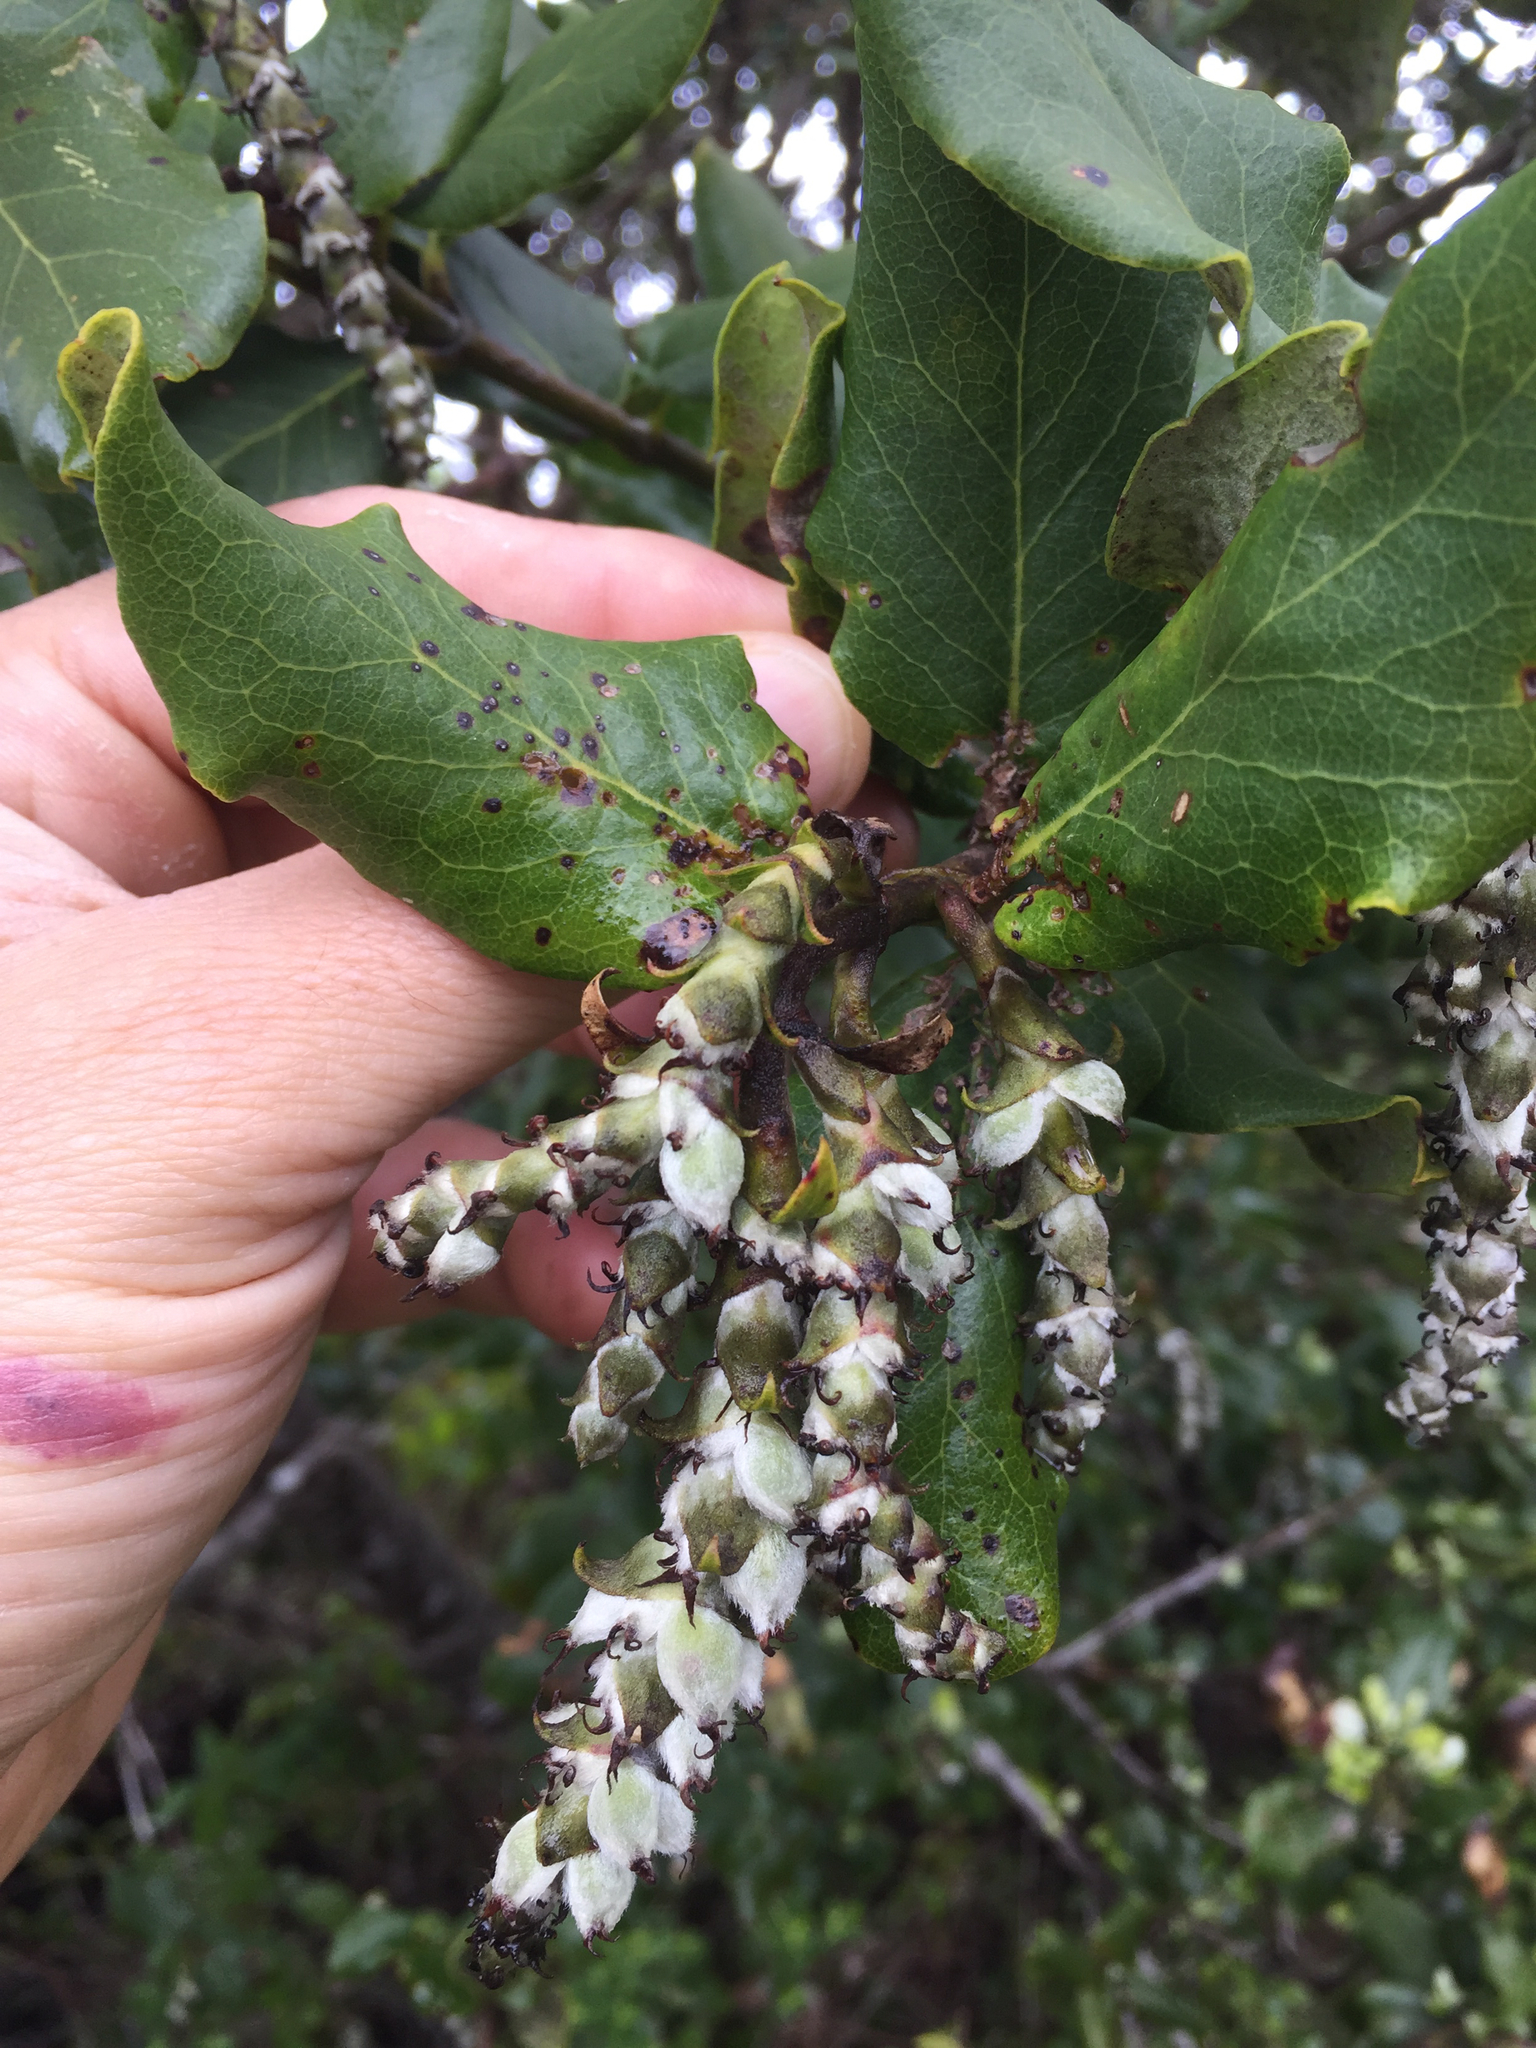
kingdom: Plantae
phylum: Tracheophyta
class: Magnoliopsida
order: Garryales
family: Garryaceae
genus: Garrya
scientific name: Garrya elliptica
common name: Silk-tassel
